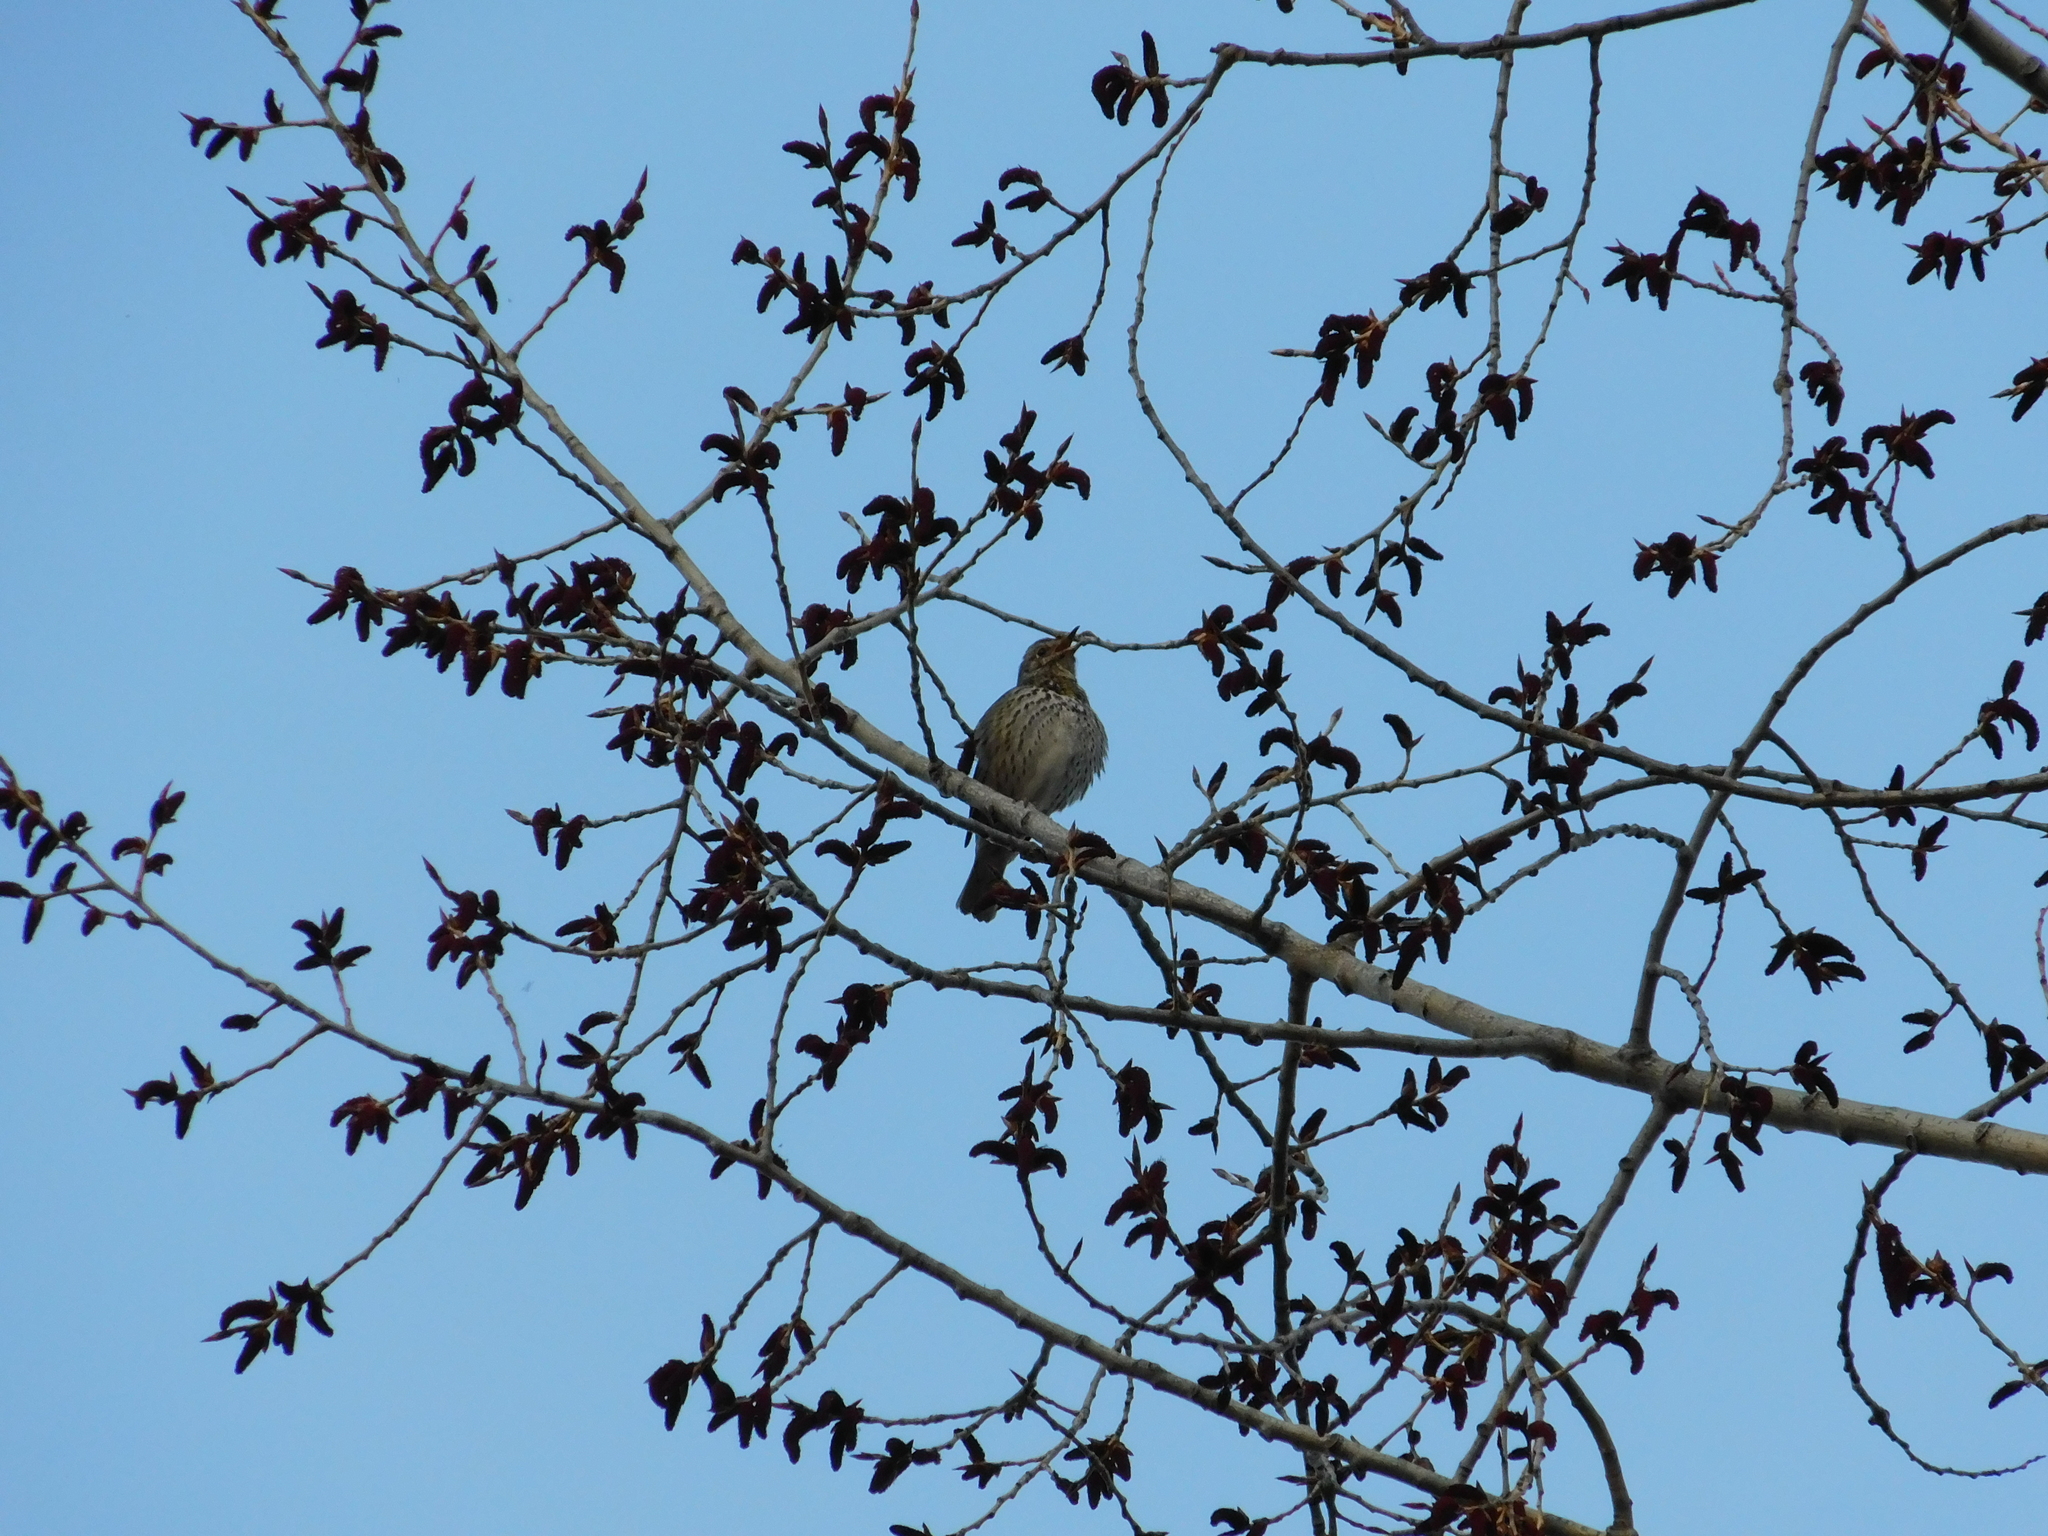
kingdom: Animalia
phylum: Chordata
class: Aves
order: Passeriformes
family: Turdidae
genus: Turdus
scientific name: Turdus philomelos
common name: Song thrush
